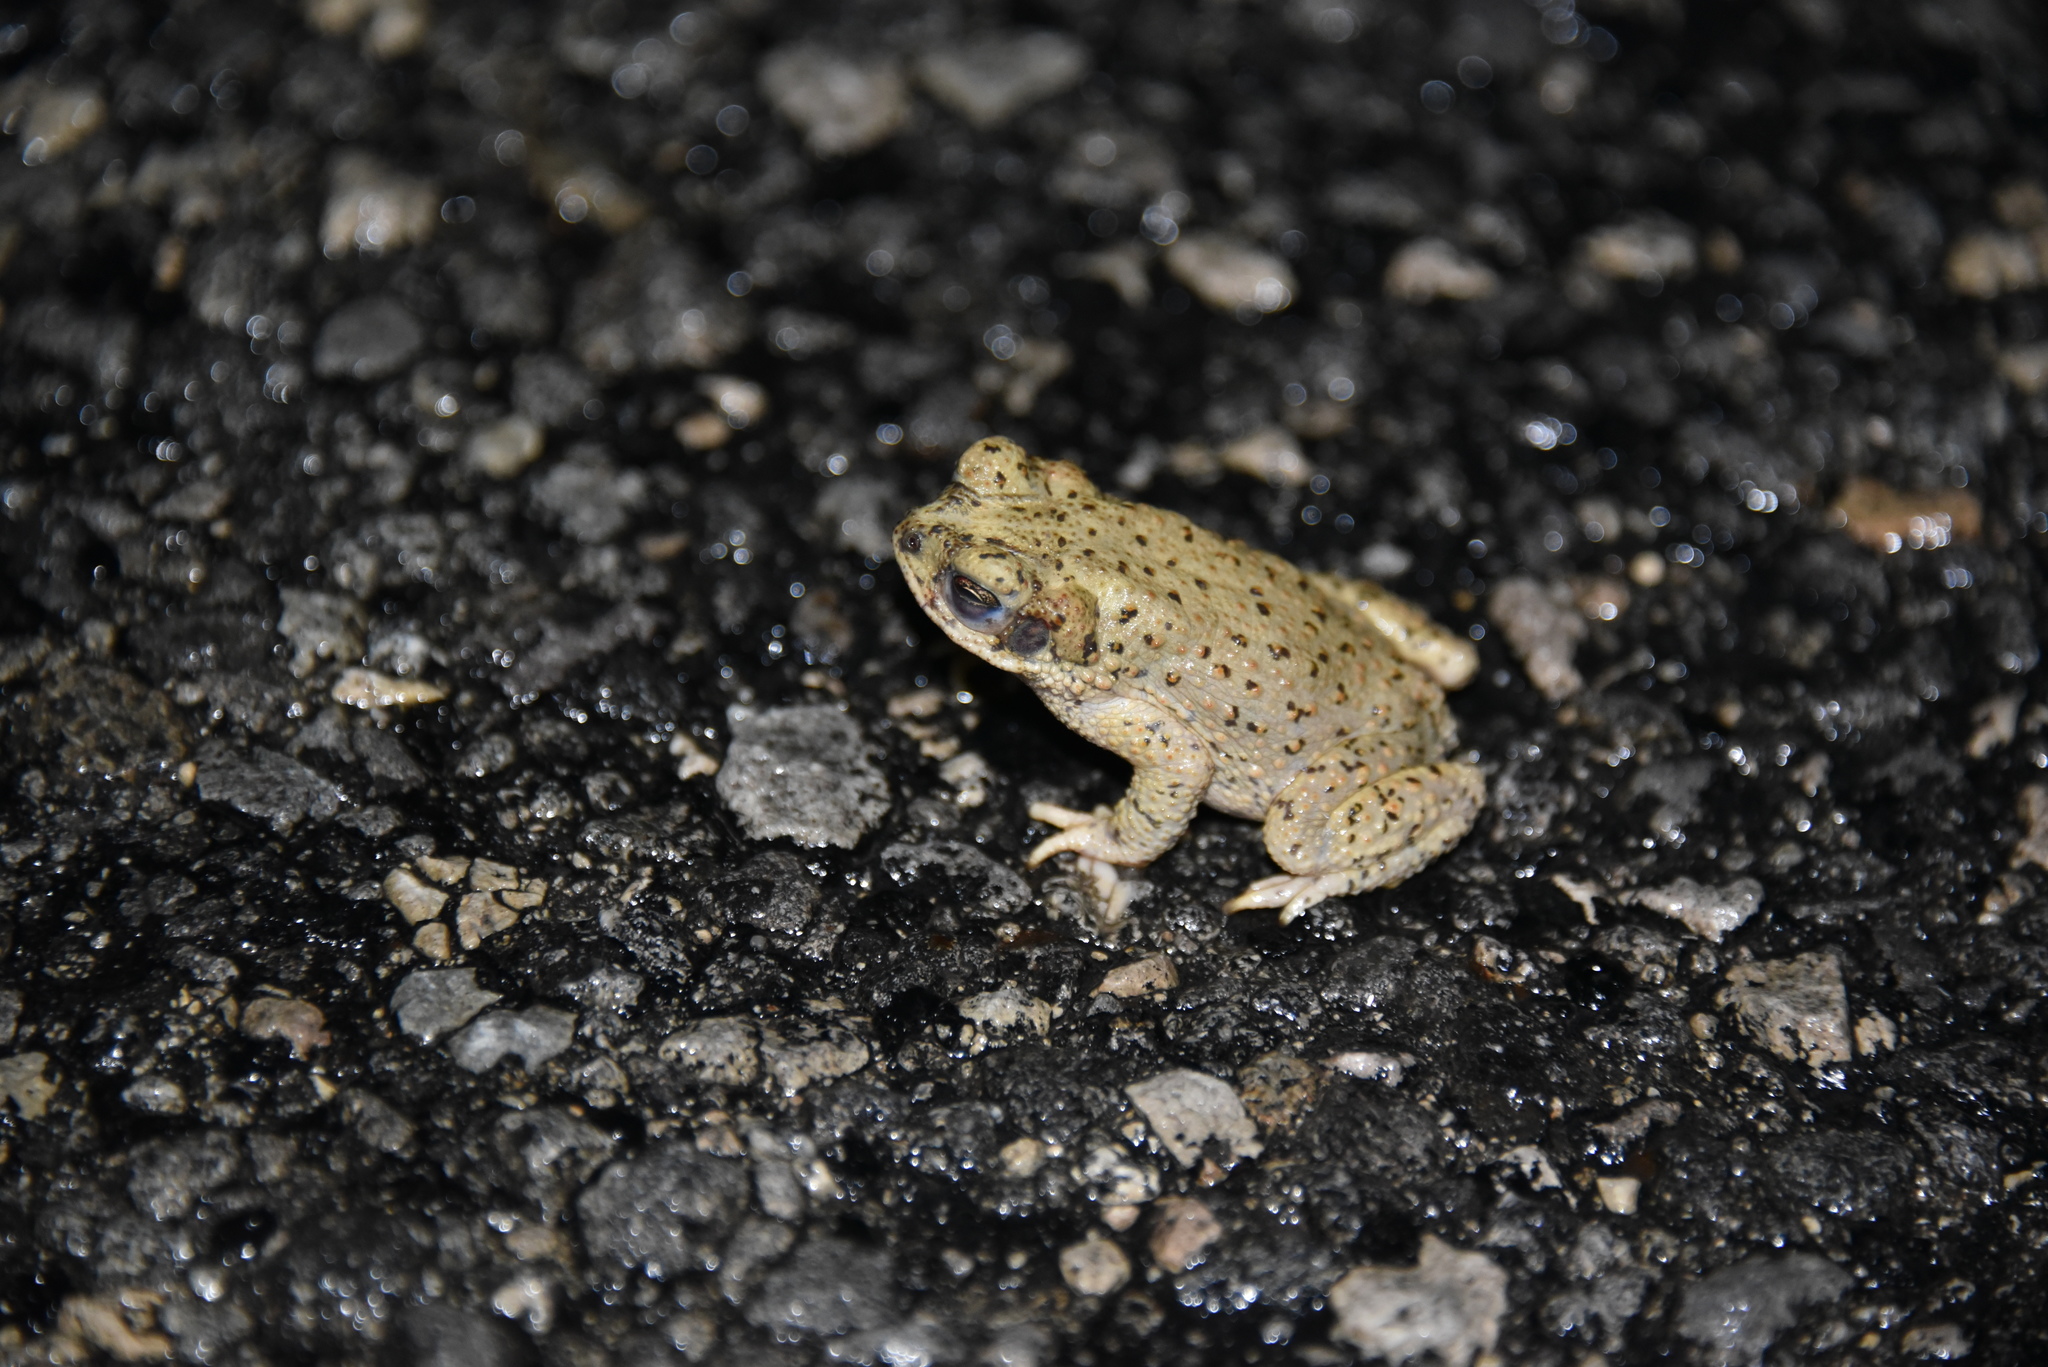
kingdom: Animalia
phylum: Chordata
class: Amphibia
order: Anura
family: Bufonidae
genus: Anaxyrus
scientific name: Anaxyrus punctatus
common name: Red-spotted toad
